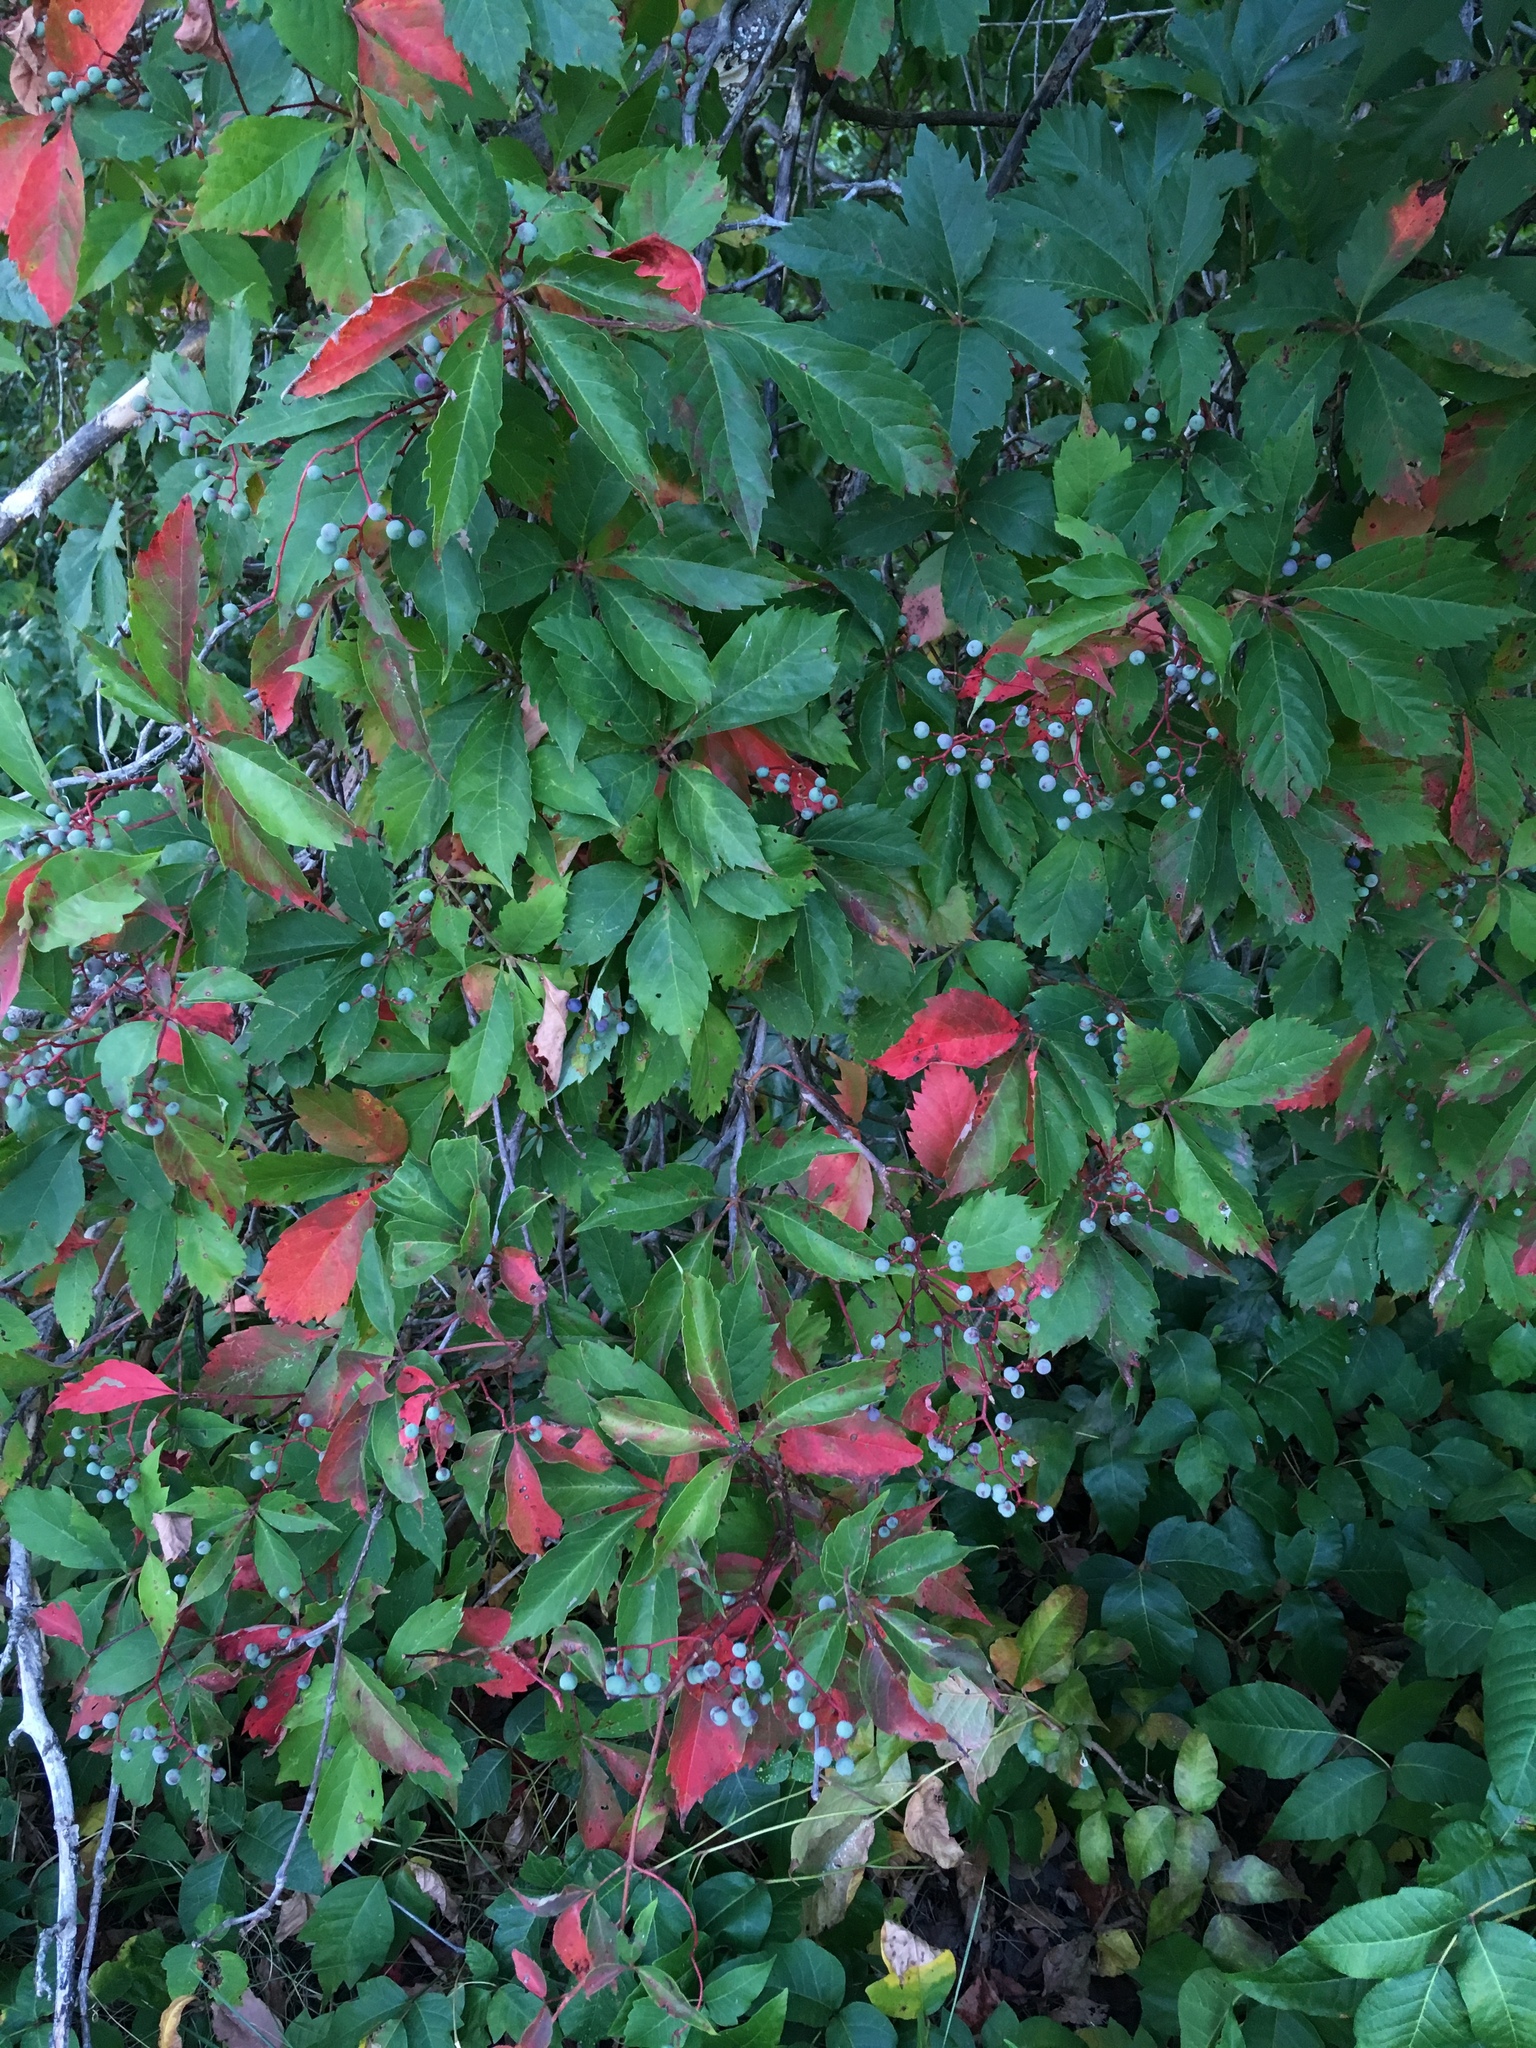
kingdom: Plantae
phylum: Tracheophyta
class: Magnoliopsida
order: Vitales
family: Vitaceae
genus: Parthenocissus
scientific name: Parthenocissus quinquefolia
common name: Virginia-creeper
